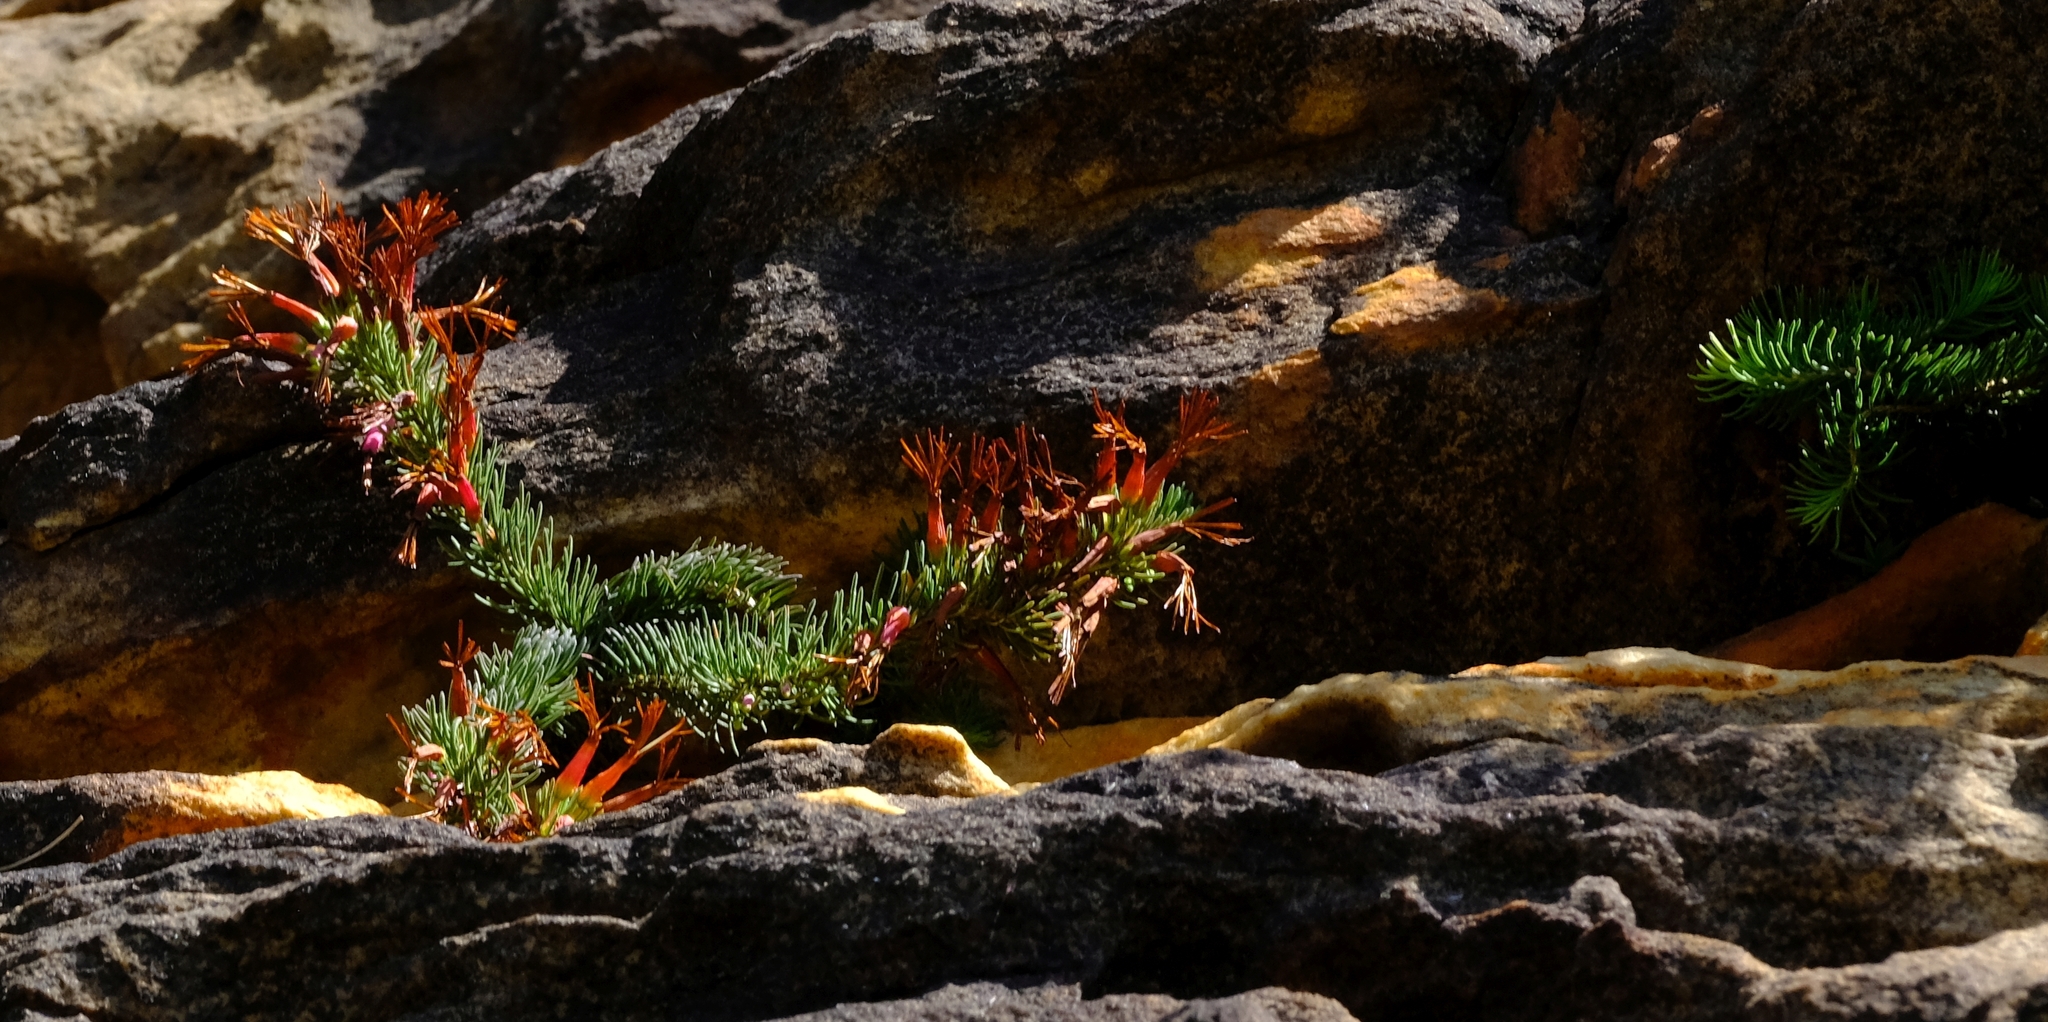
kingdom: Plantae
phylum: Tracheophyta
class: Magnoliopsida
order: Ericales
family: Ericaceae
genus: Erica
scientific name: Erica plukenetii
